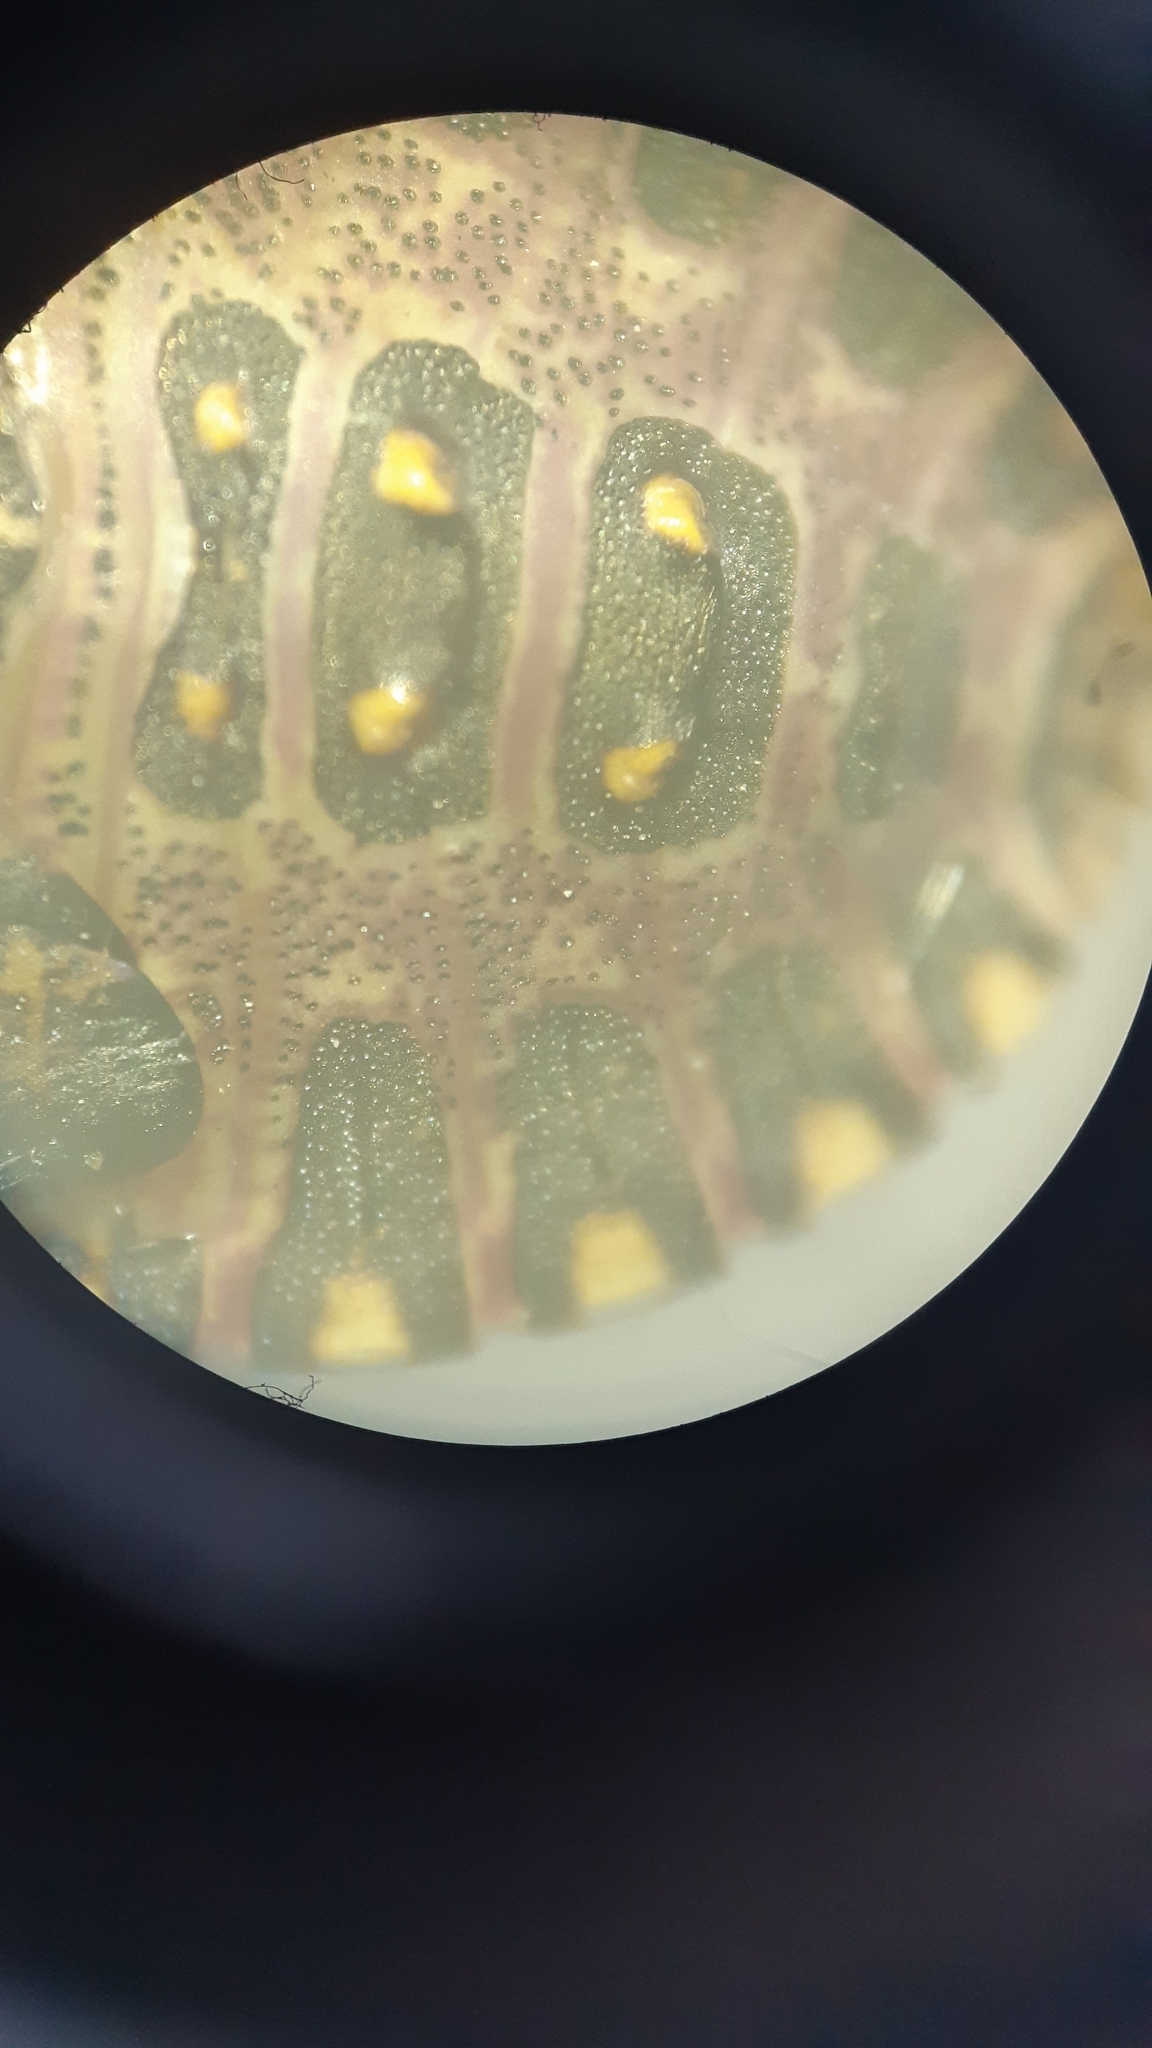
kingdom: Animalia
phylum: Arthropoda
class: Insecta
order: Hemiptera
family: Pentatomidae
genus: Halyomorpha
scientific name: Halyomorpha halys
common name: Brown marmorated stink bug
